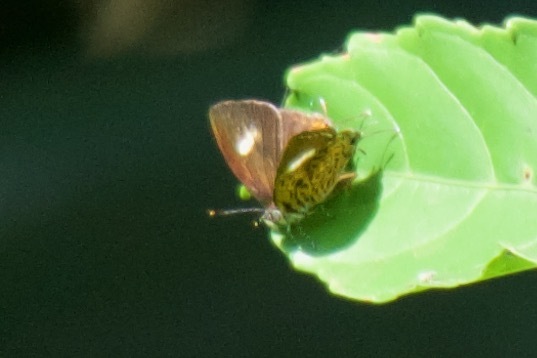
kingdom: Animalia
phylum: Arthropoda
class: Insecta
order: Lepidoptera
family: Lycaenidae
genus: Rathinda
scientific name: Rathinda amor
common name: Monkey puzzle
